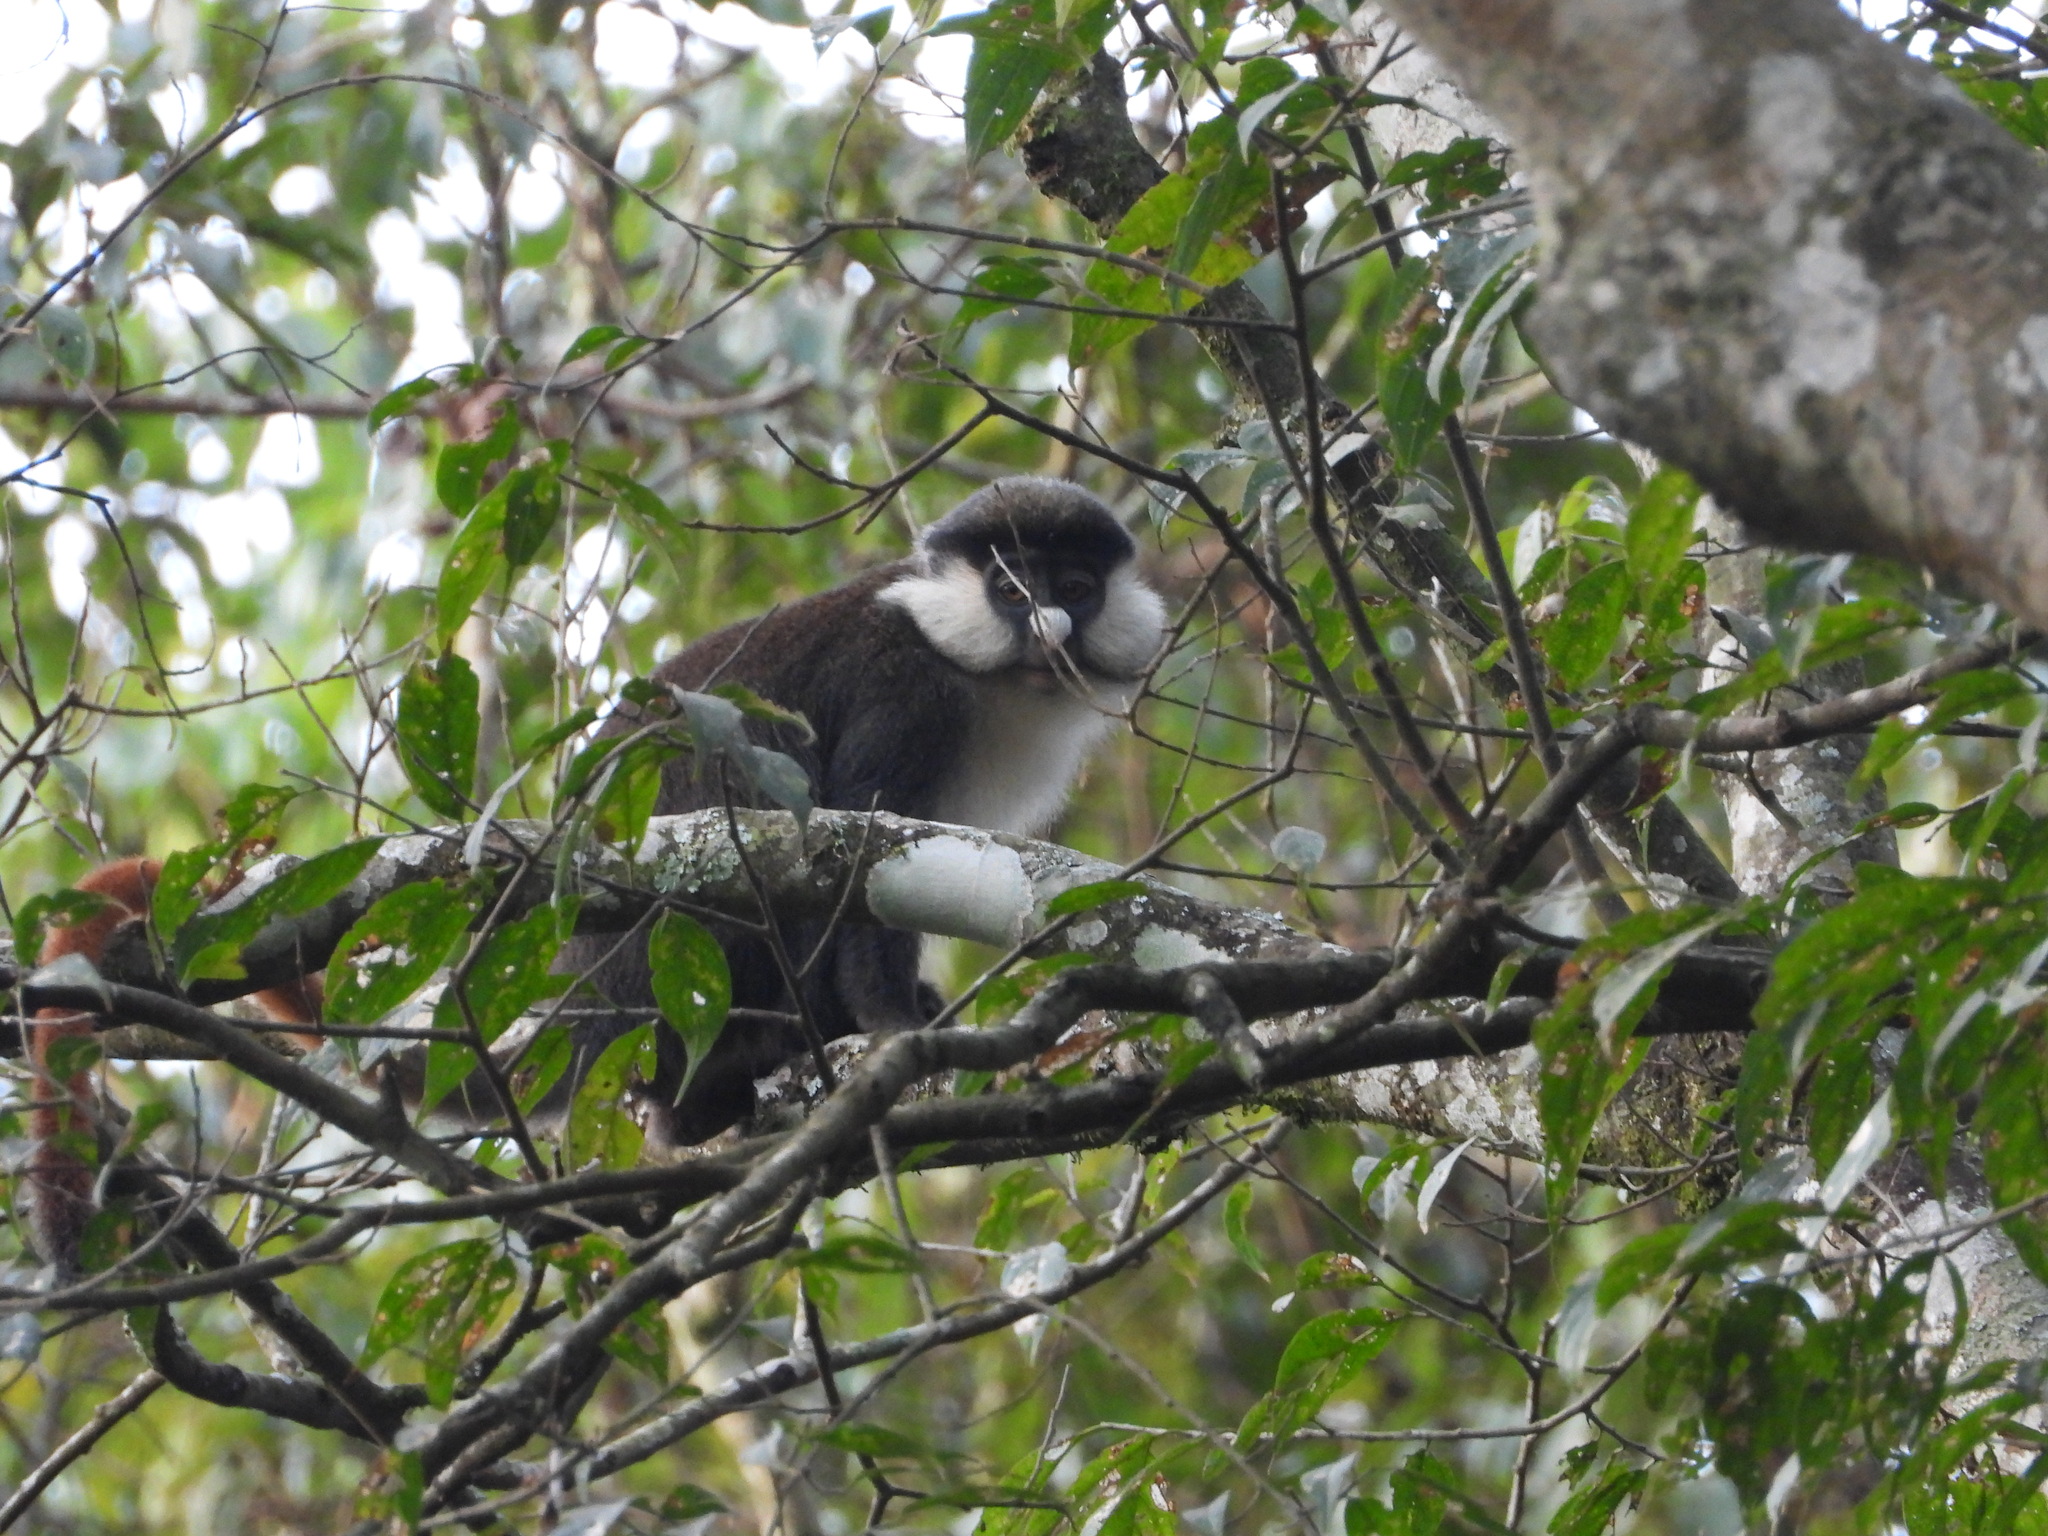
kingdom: Animalia
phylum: Chordata
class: Mammalia
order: Primates
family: Cercopithecidae
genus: Cercopithecus
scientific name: Cercopithecus ascanius
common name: Red-tailed monkey
